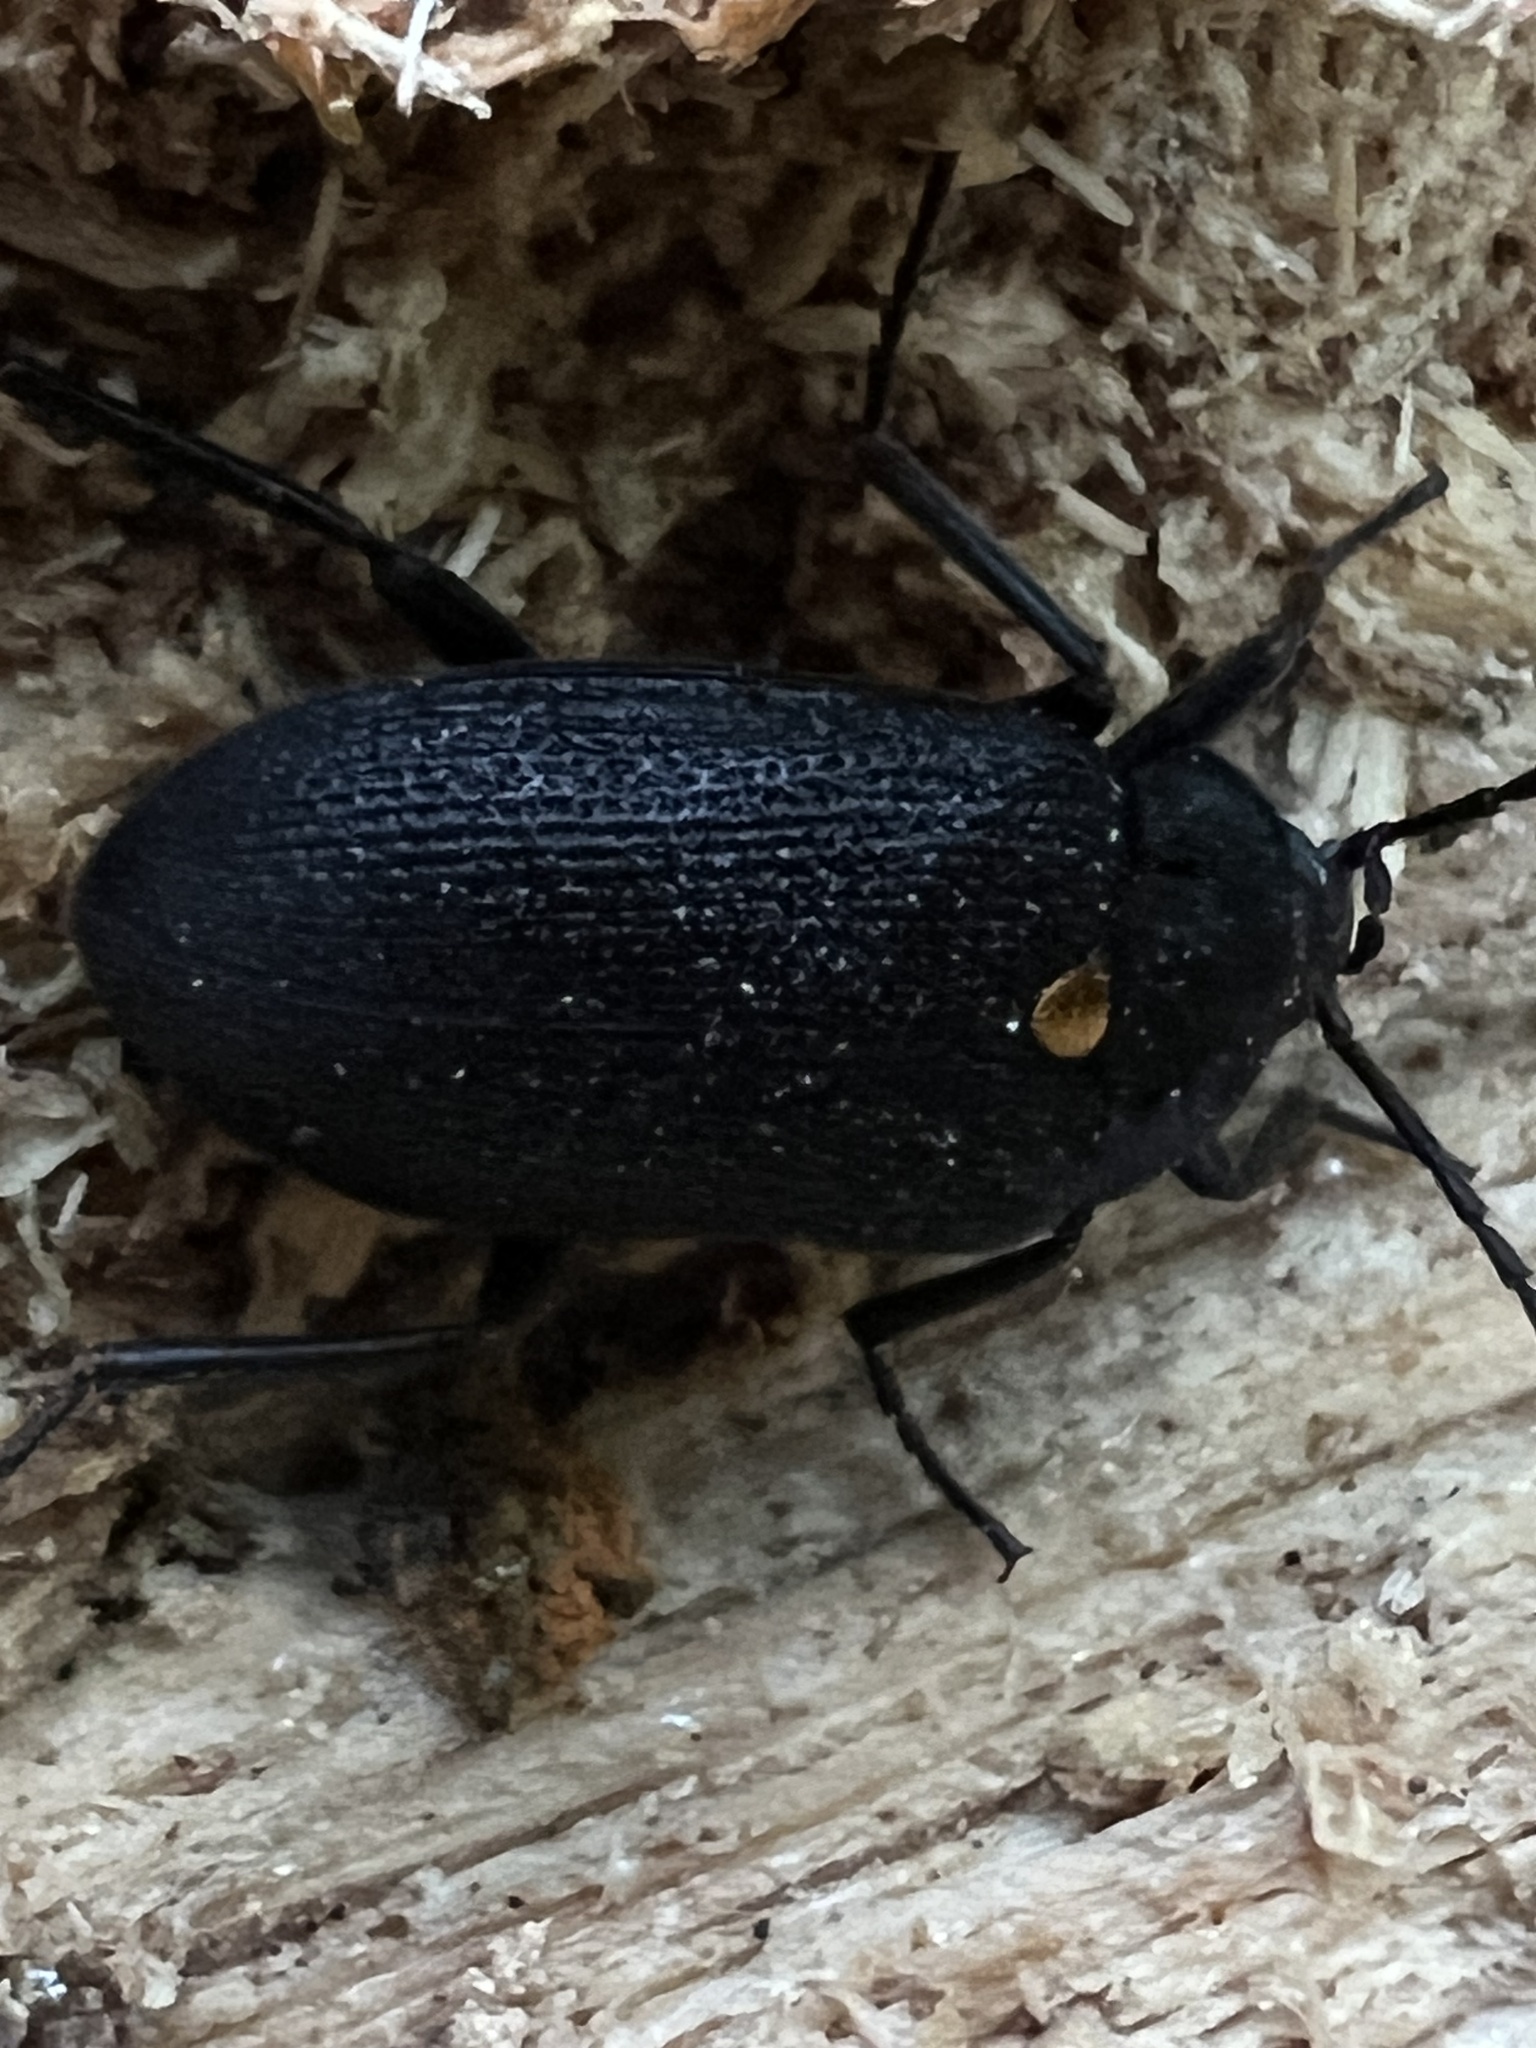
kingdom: Animalia
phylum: Arthropoda
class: Insecta
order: Coleoptera
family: Tetratomidae
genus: Penthe
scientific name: Penthe obliquata
